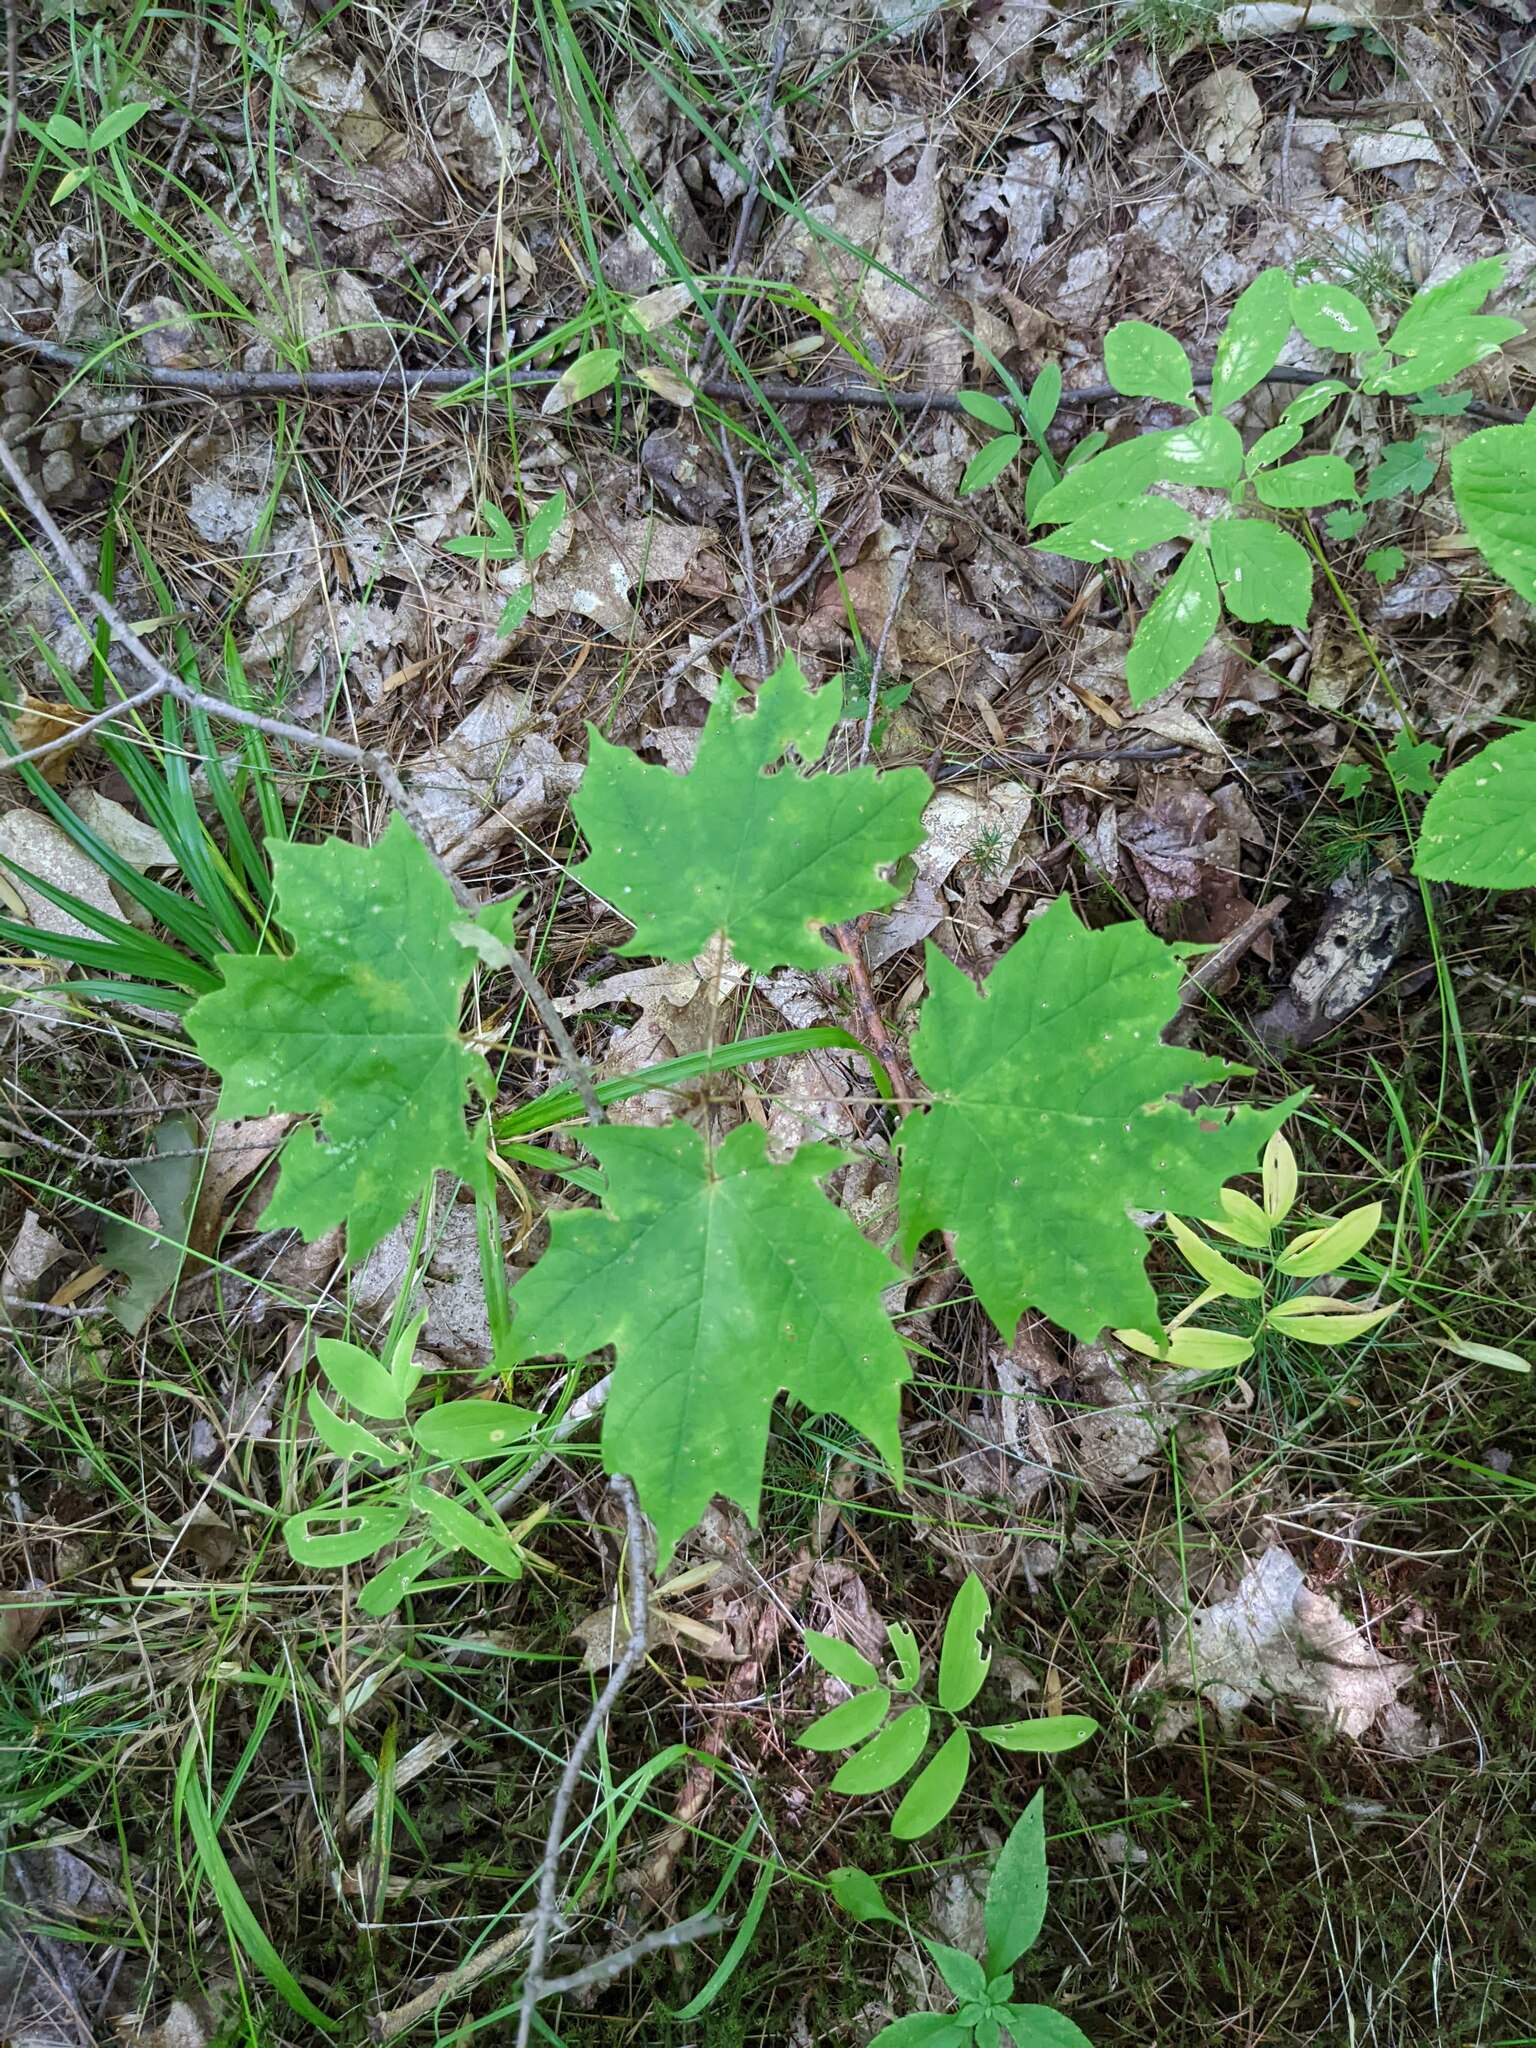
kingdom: Plantae
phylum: Tracheophyta
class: Magnoliopsida
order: Sapindales
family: Sapindaceae
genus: Acer
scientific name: Acer saccharum
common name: Sugar maple
